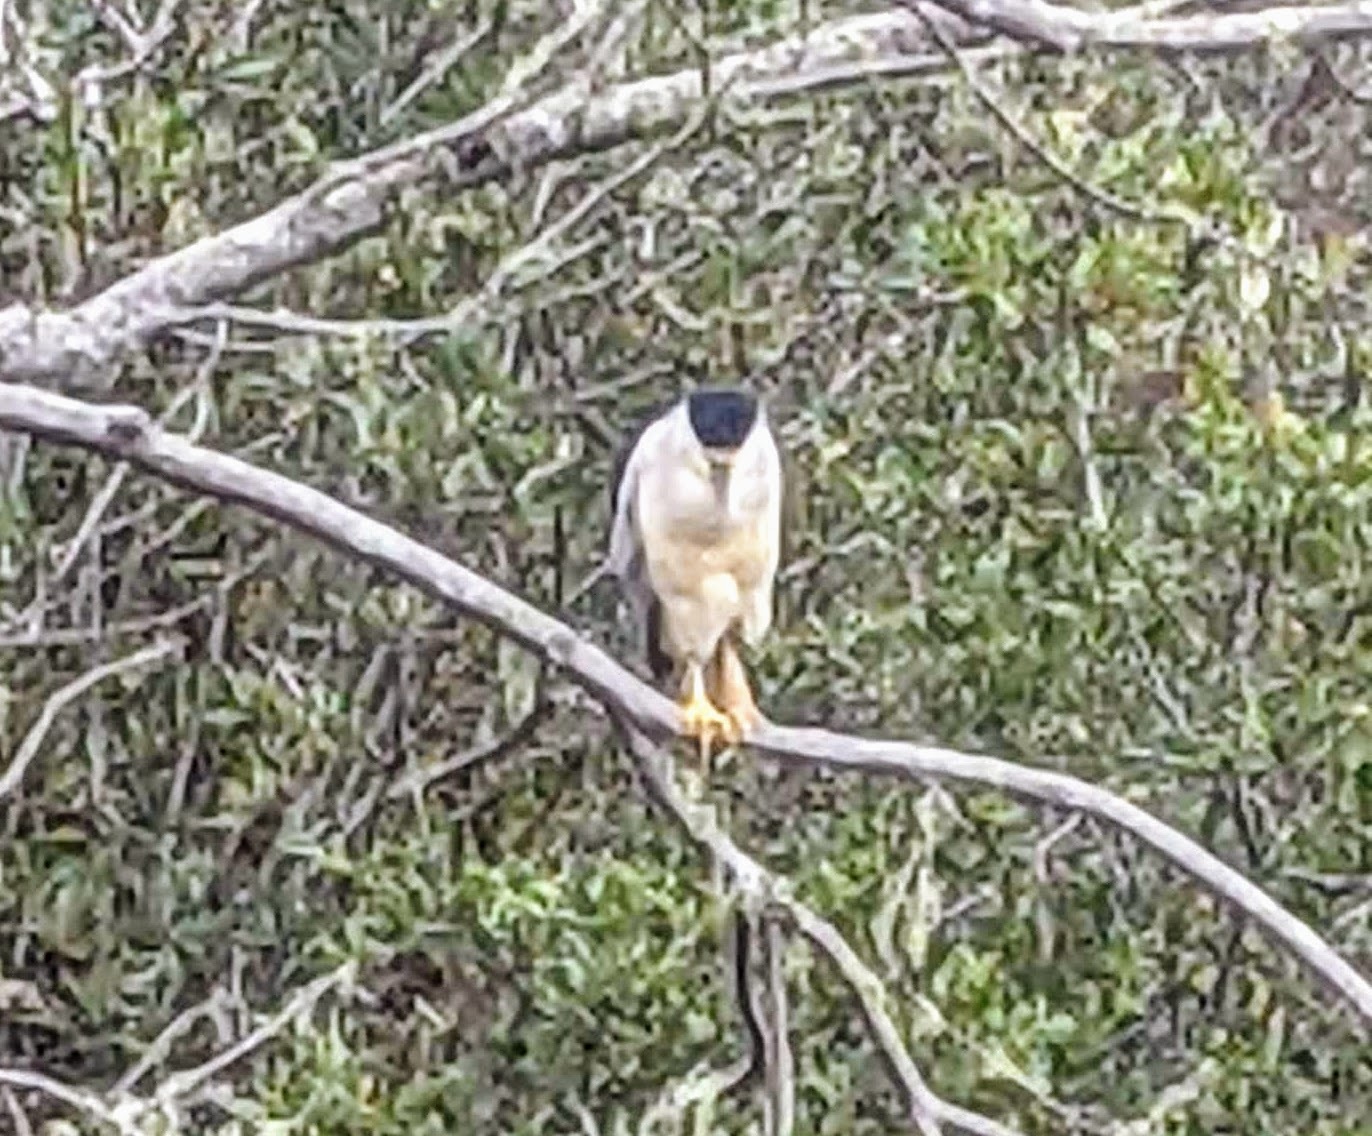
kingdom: Animalia
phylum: Chordata
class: Aves
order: Pelecaniformes
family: Ardeidae
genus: Nycticorax
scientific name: Nycticorax nycticorax
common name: Black-crowned night heron
